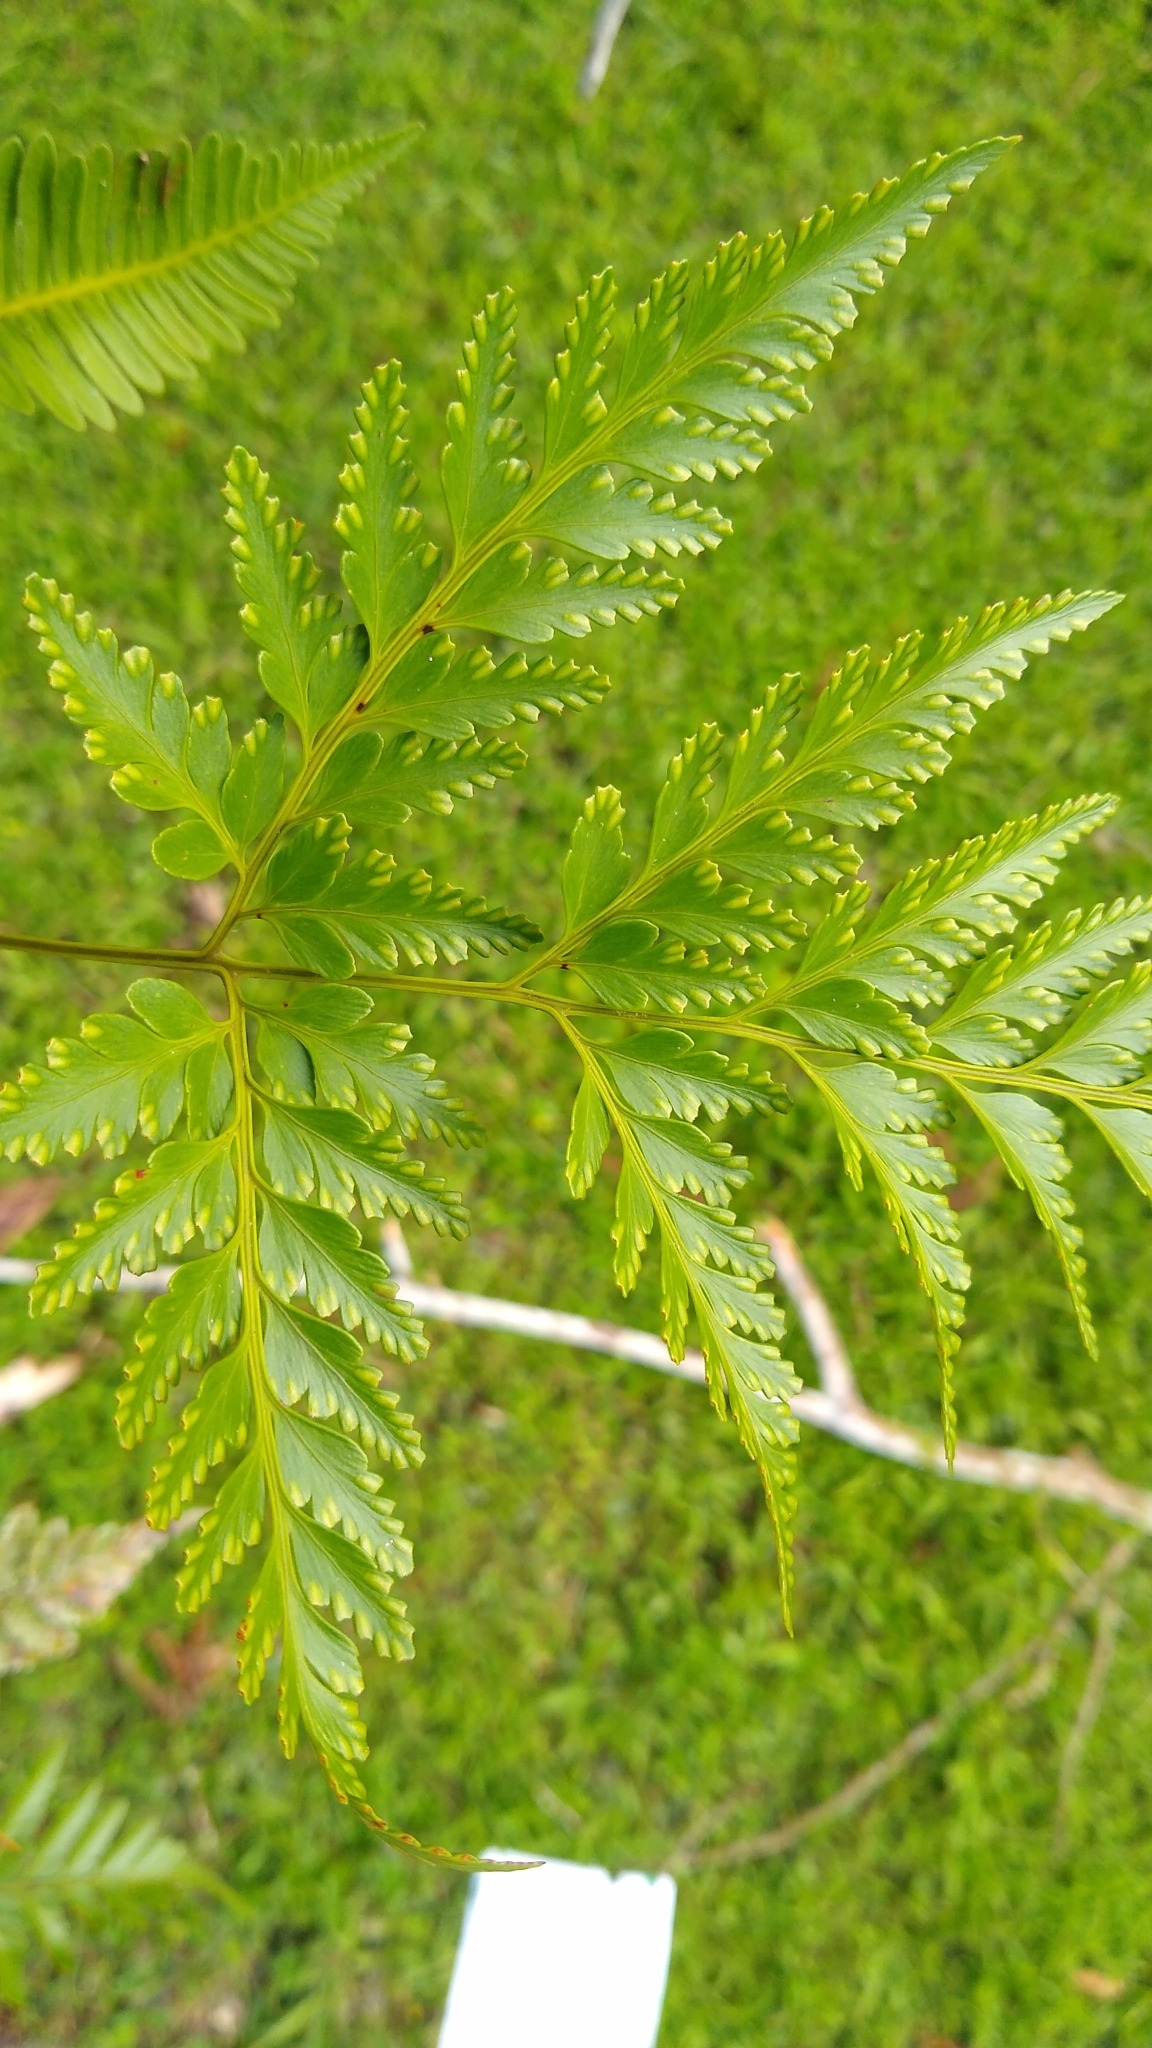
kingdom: Plantae
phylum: Tracheophyta
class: Polypodiopsida
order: Polypodiales
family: Davalliaceae
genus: Davallia
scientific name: Davallia solida
